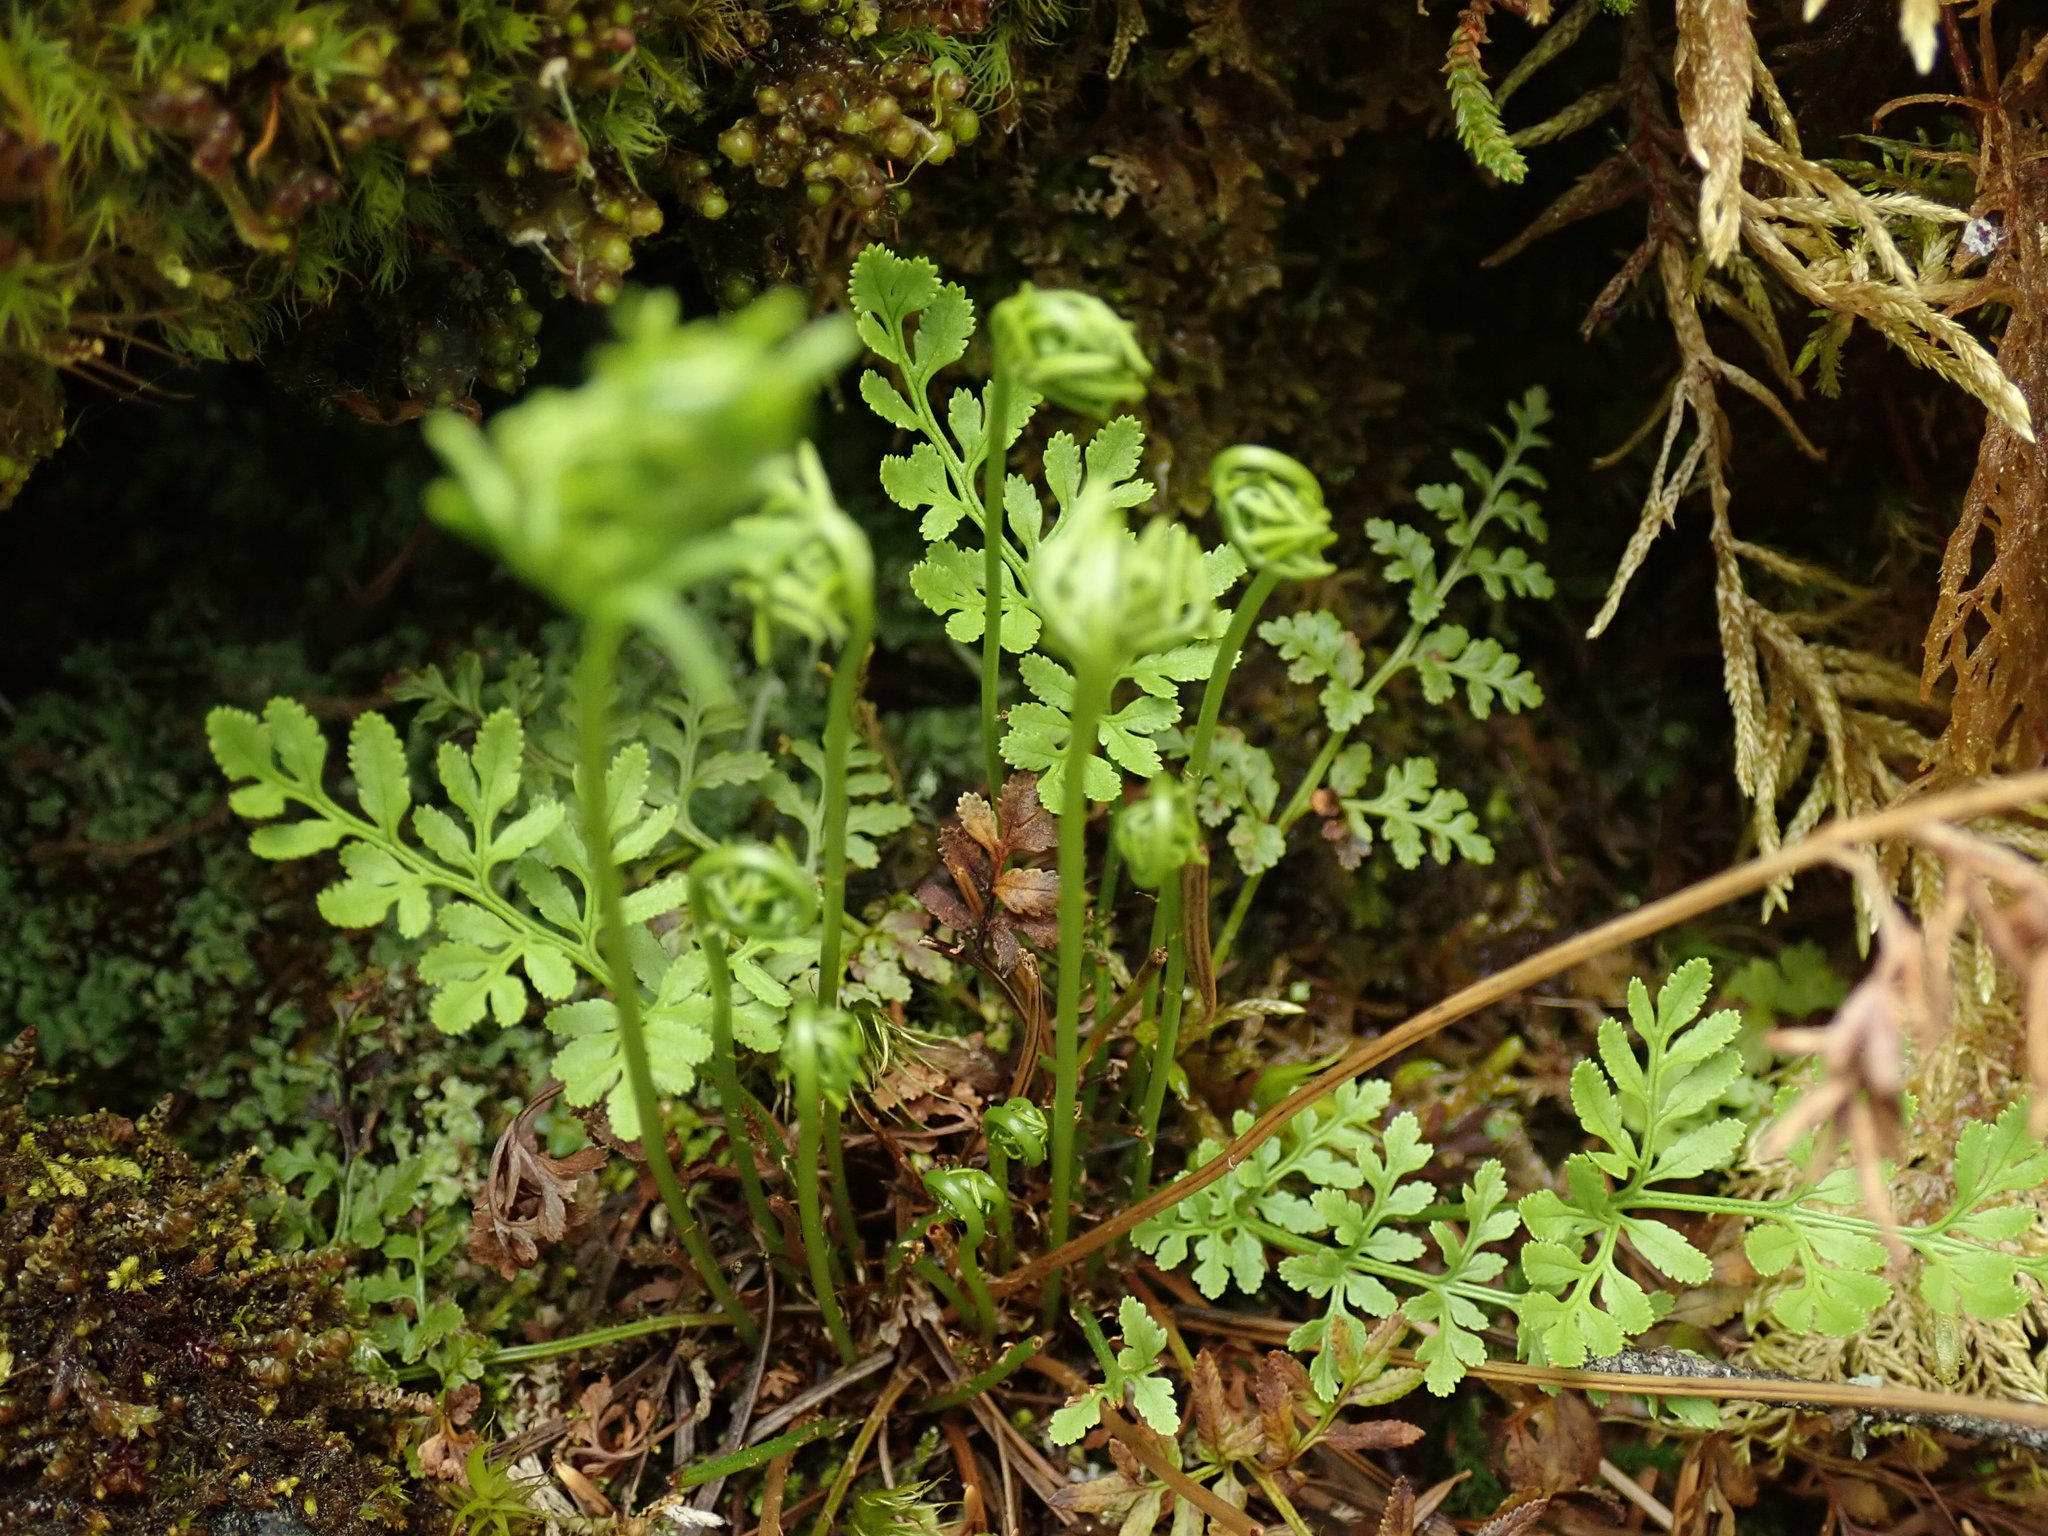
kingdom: Plantae
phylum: Tracheophyta
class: Polypodiopsida
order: Polypodiales
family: Pteridaceae
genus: Cryptogramma
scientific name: Cryptogramma acrostichoides
